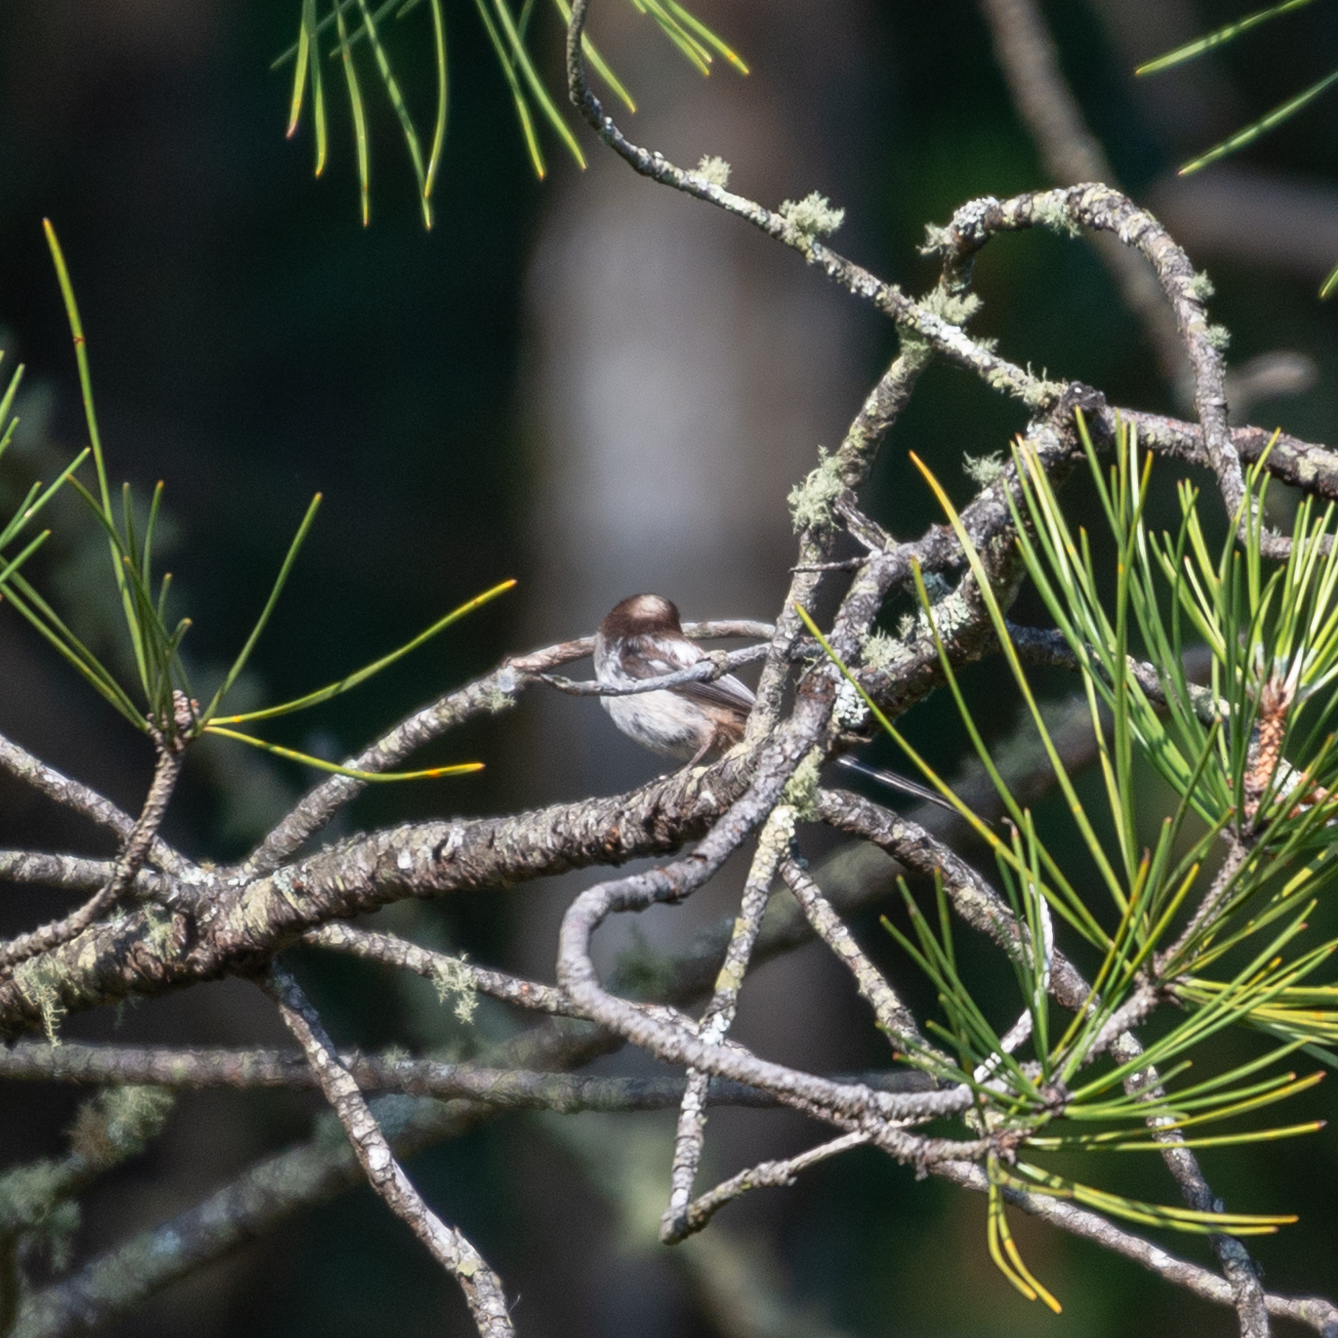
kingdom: Animalia
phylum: Chordata
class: Aves
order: Passeriformes
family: Aegithalidae
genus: Aegithalos
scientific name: Aegithalos caudatus
